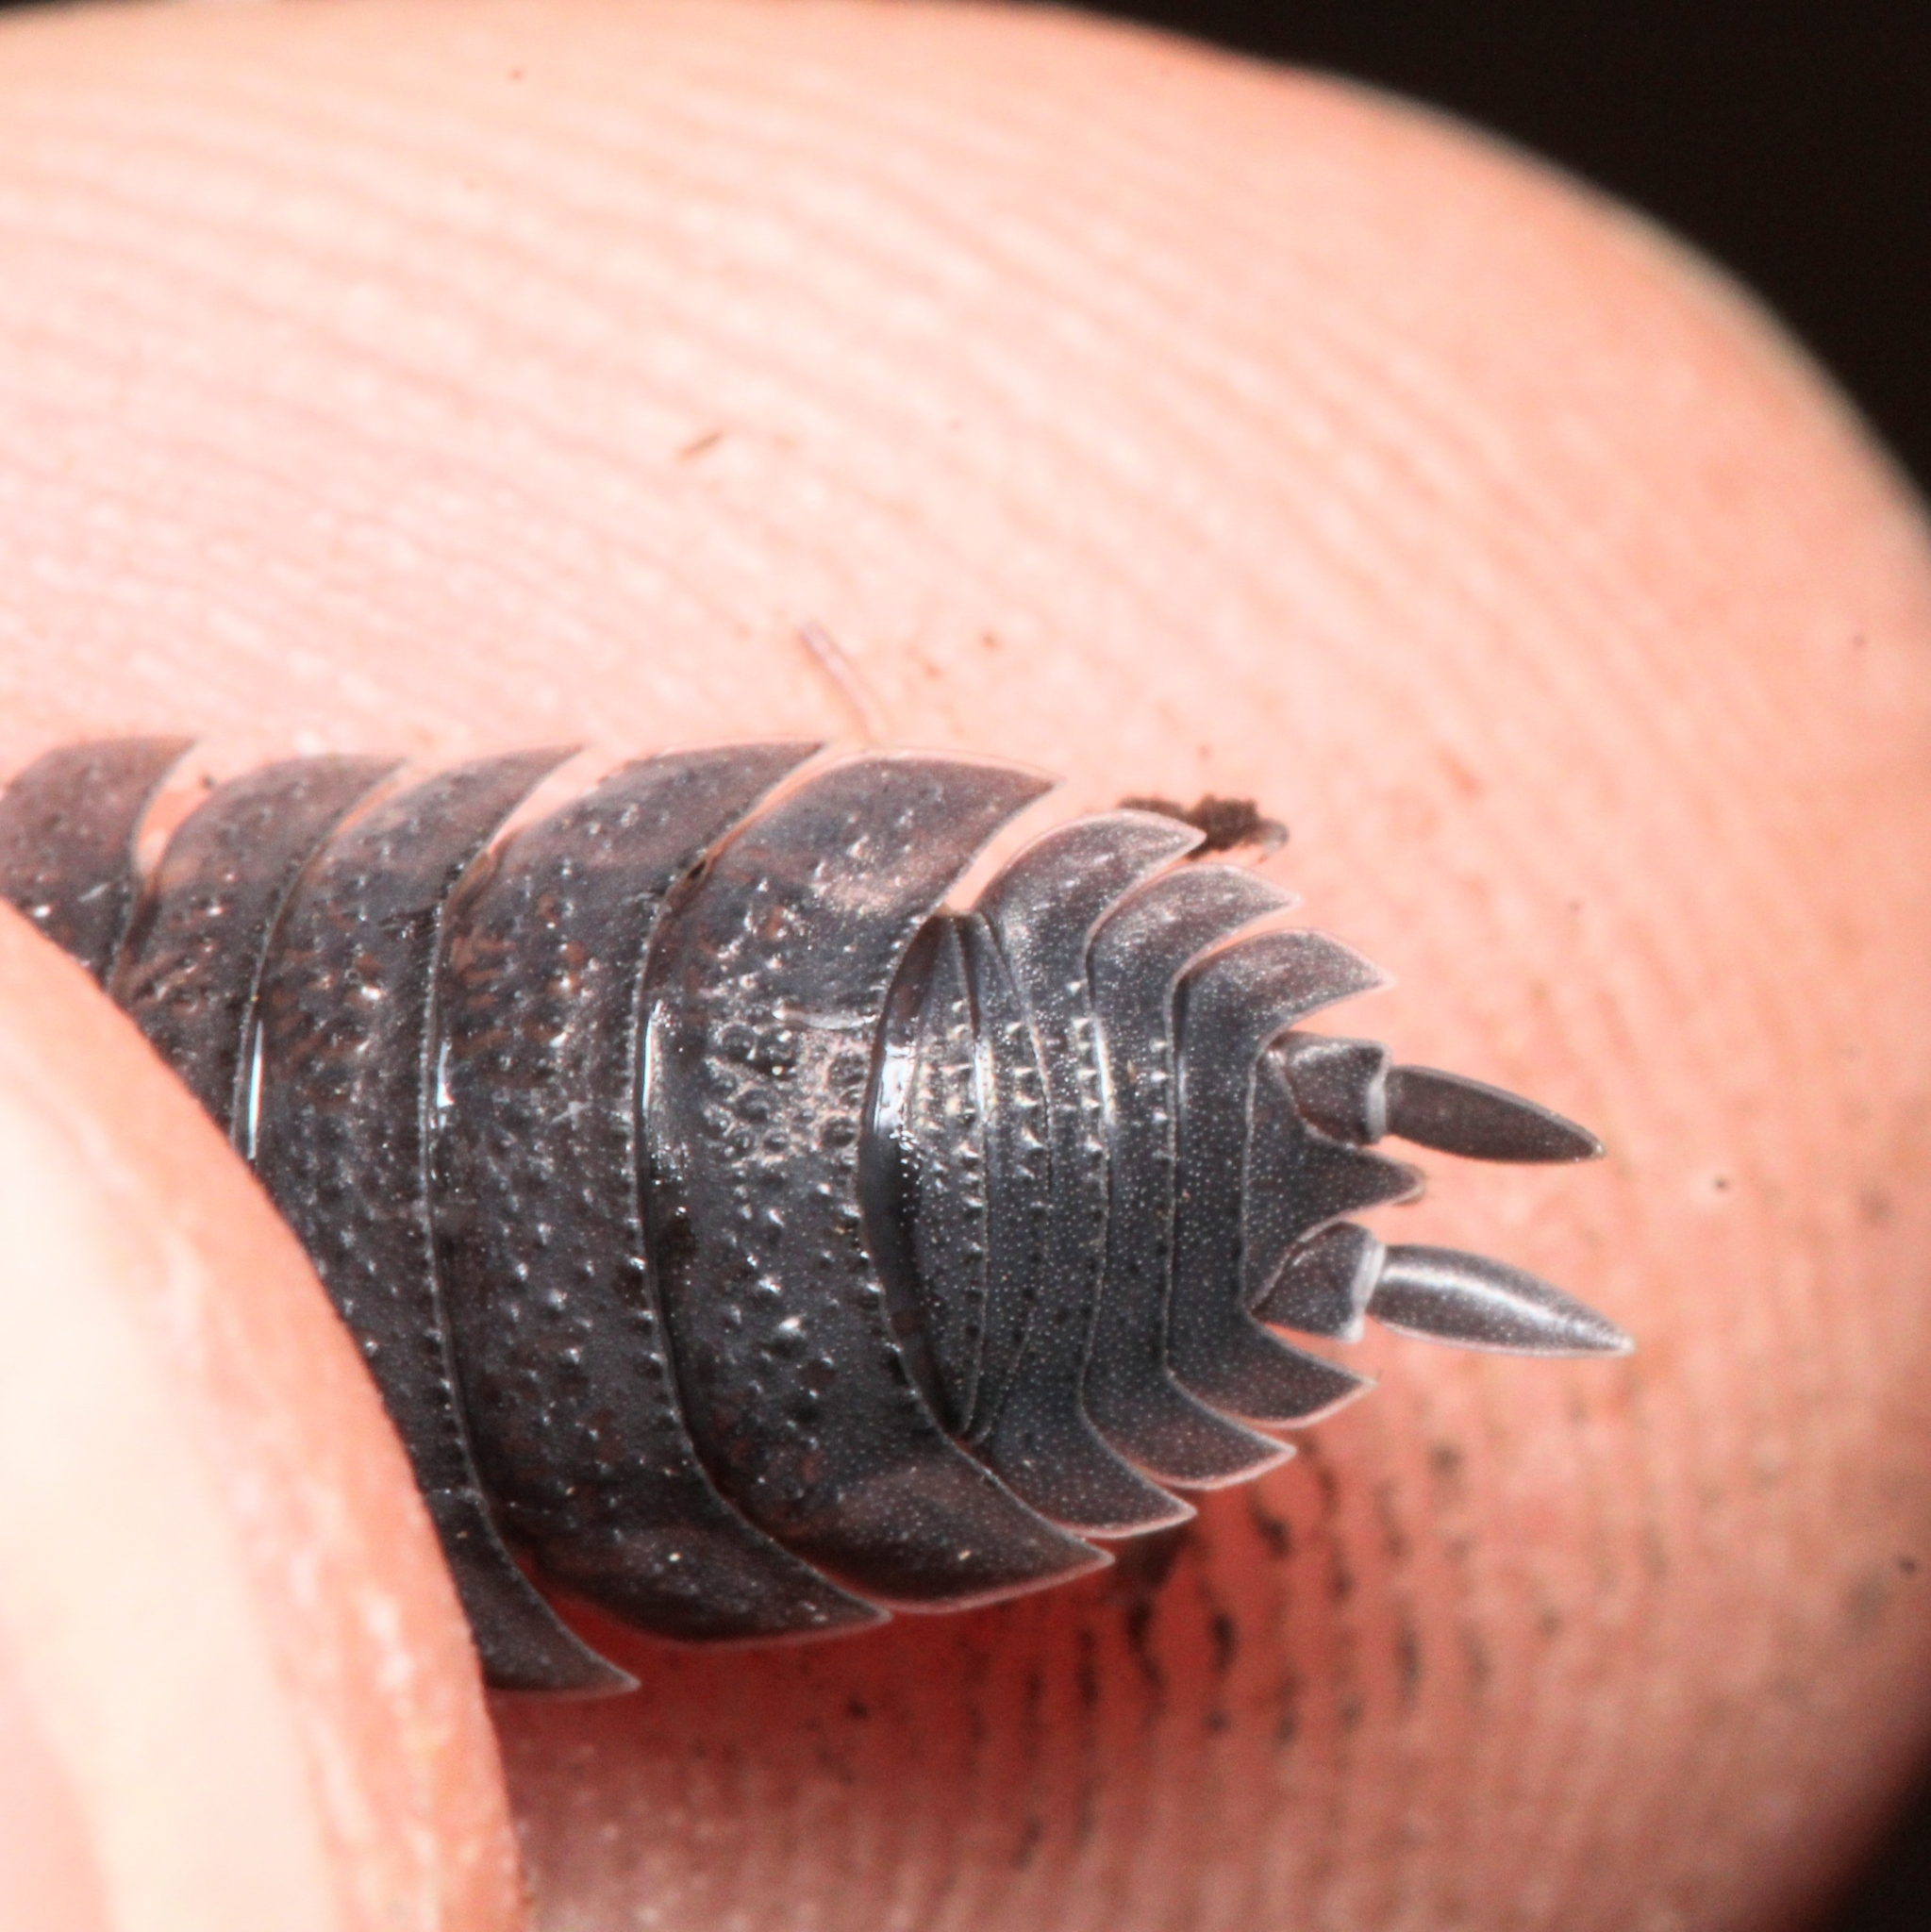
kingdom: Animalia
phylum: Arthropoda
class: Malacostraca
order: Isopoda
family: Porcellionidae
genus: Porcellio
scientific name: Porcellio scaber
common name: Common rough woodlouse
